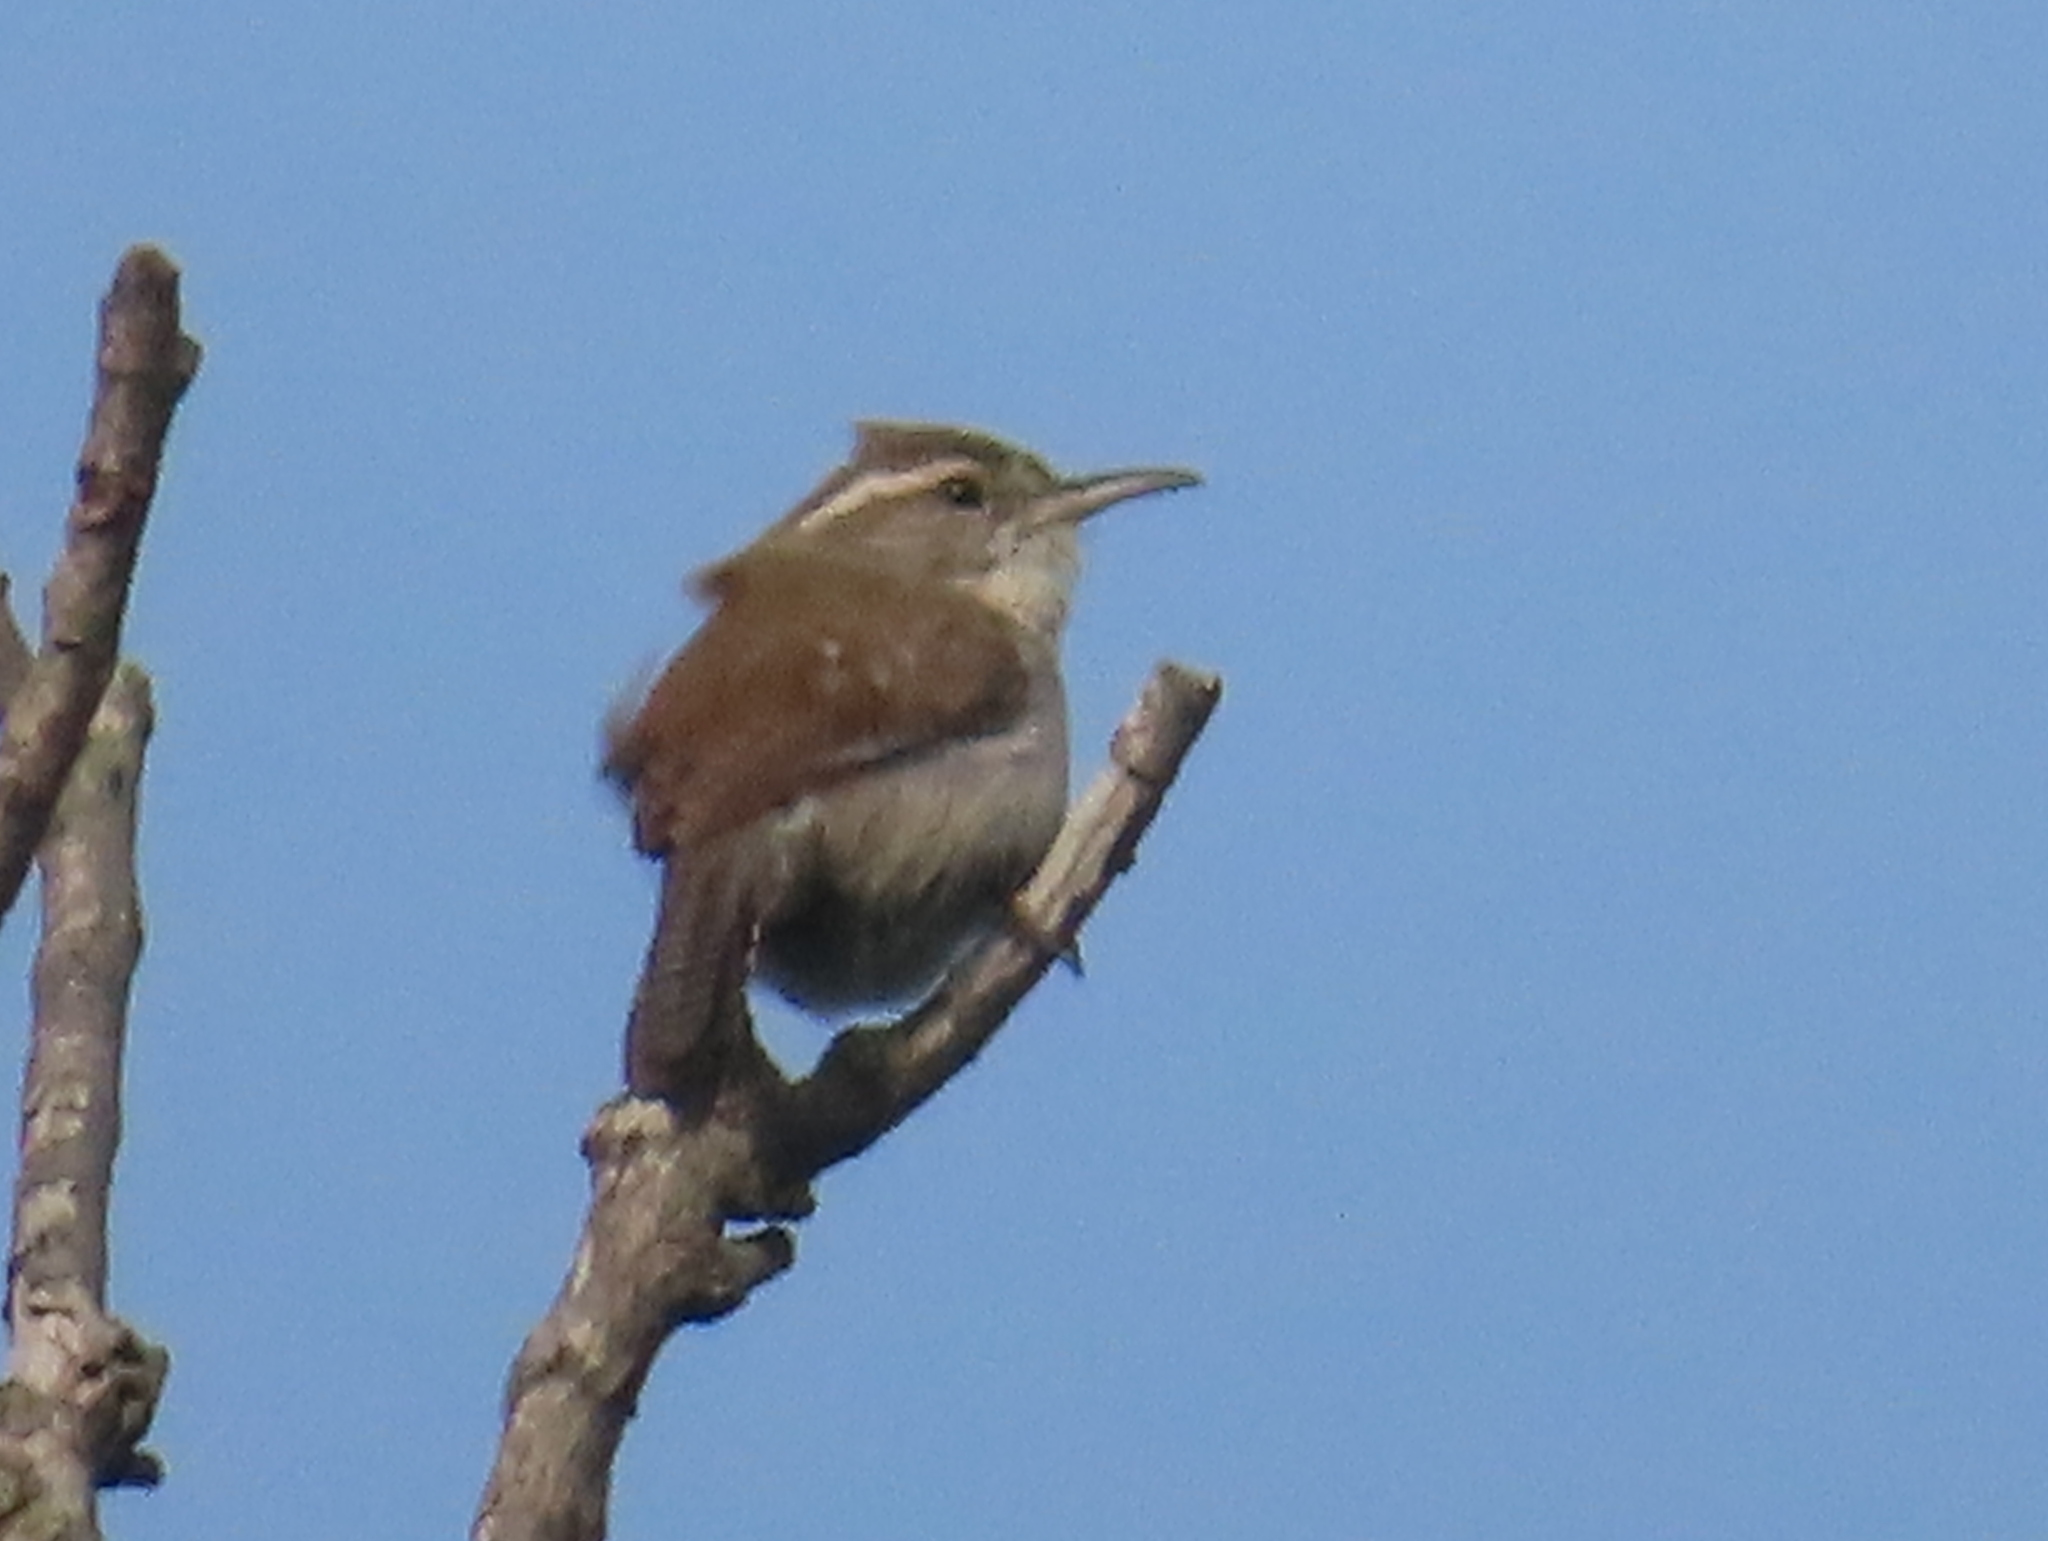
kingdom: Animalia
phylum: Chordata
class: Aves
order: Passeriformes
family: Troglodytidae
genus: Thryomanes
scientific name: Thryomanes bewickii
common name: Bewick's wren
